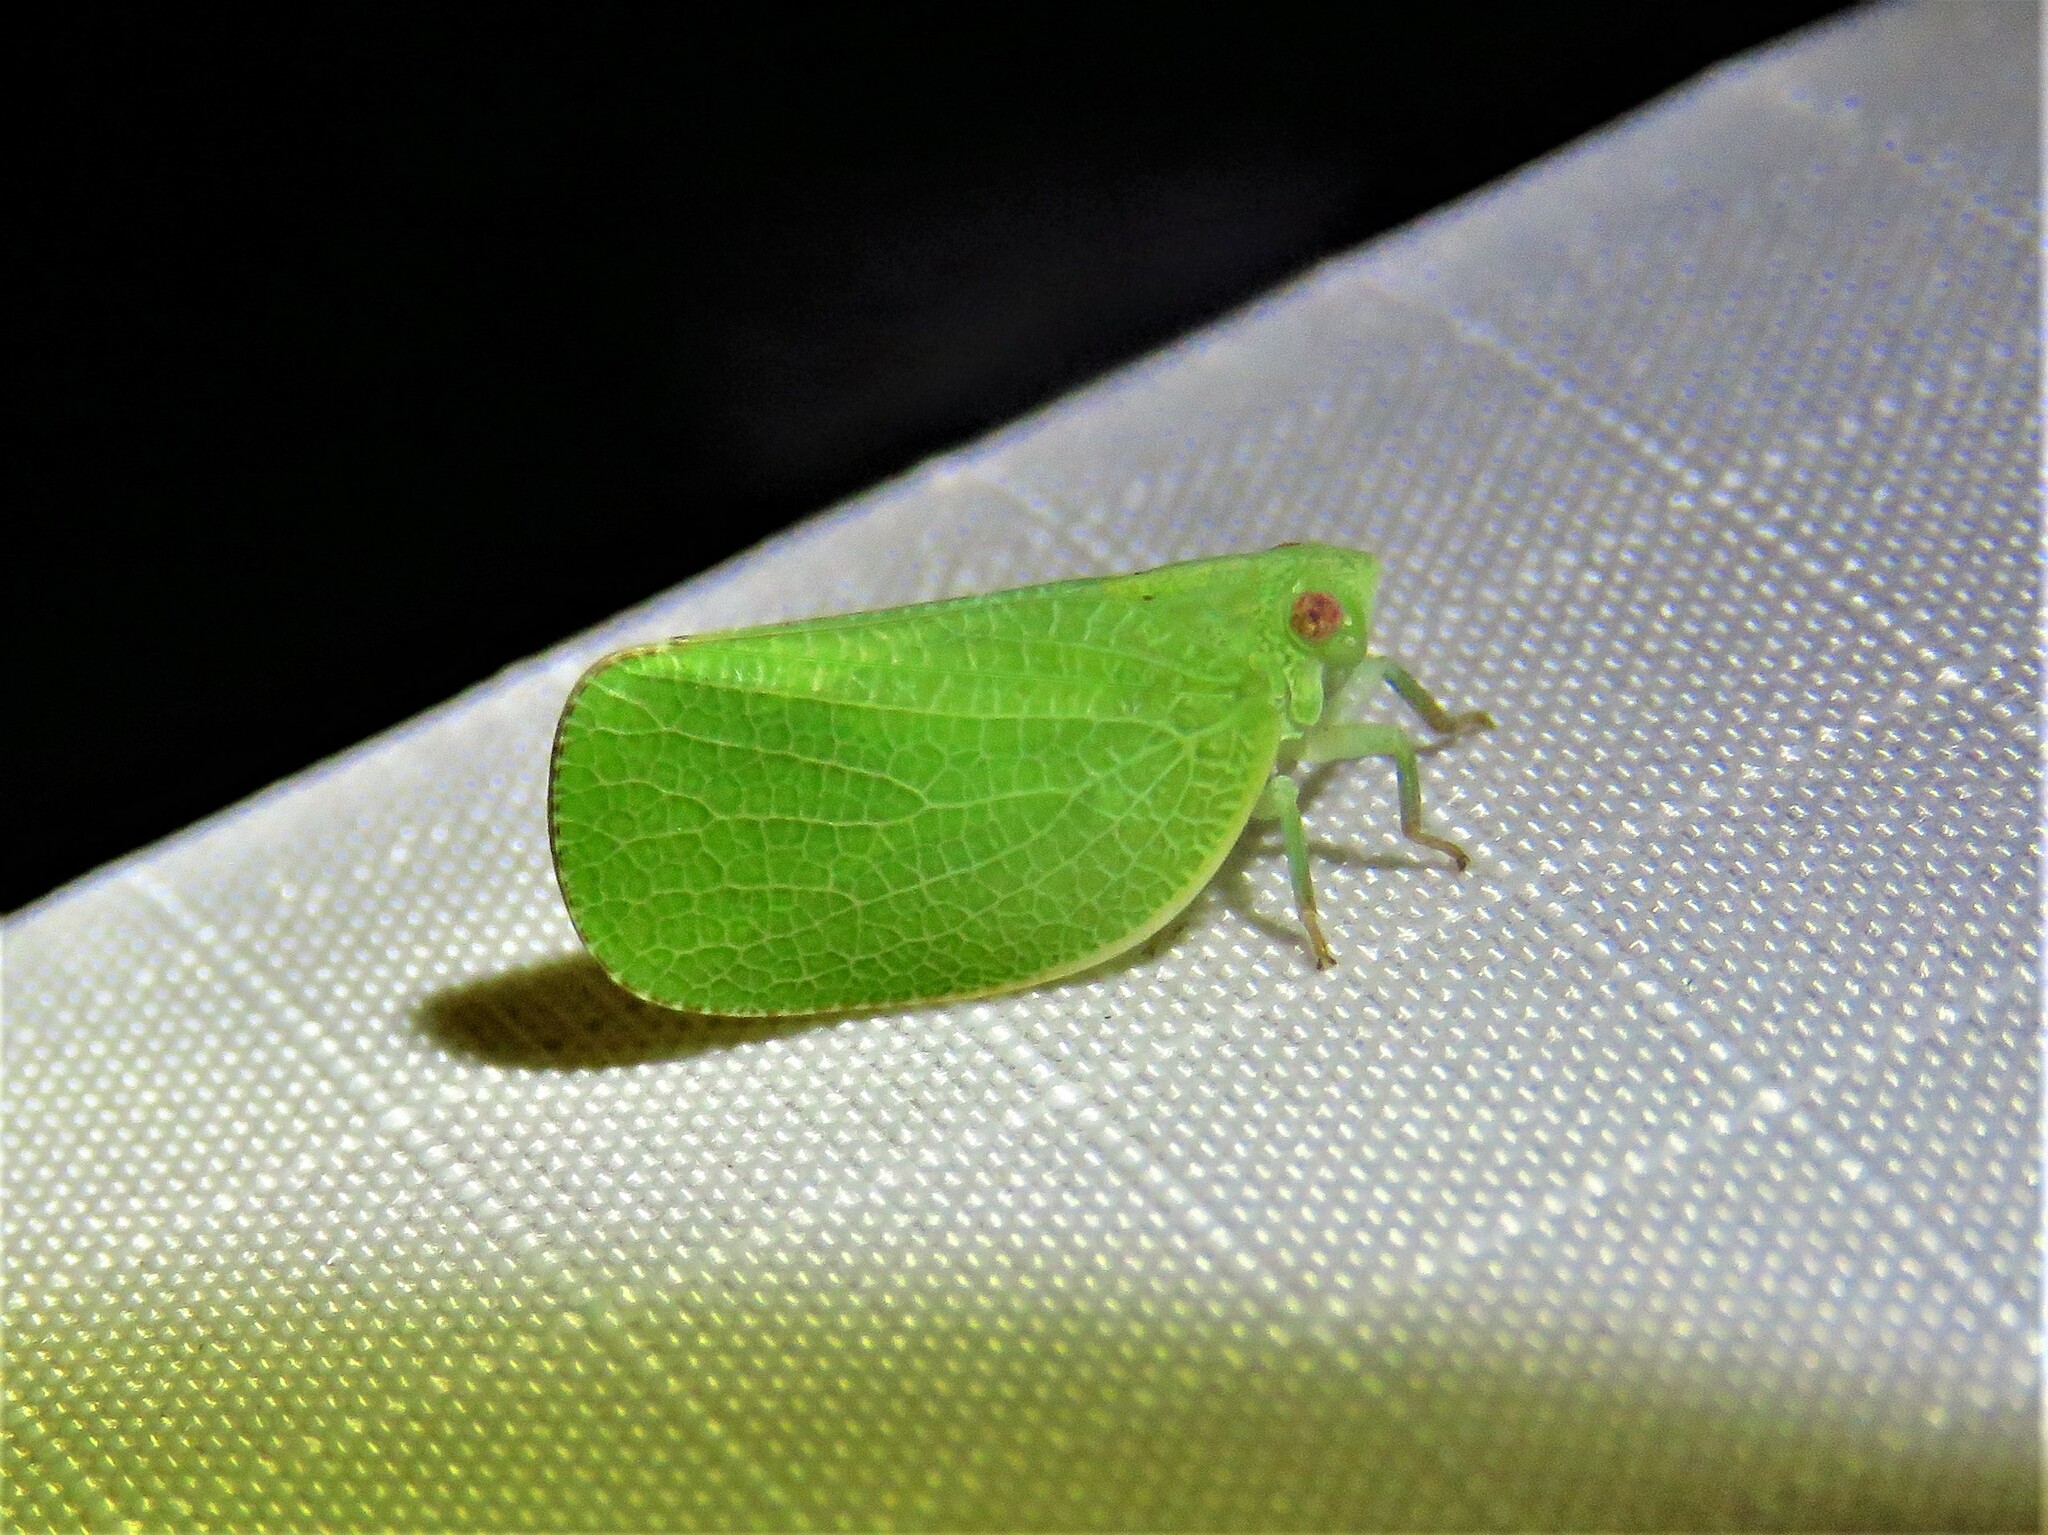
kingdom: Animalia
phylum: Arthropoda
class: Insecta
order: Hemiptera
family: Acanaloniidae
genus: Acanalonia
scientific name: Acanalonia conica
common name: Green cone-headed planthopper
